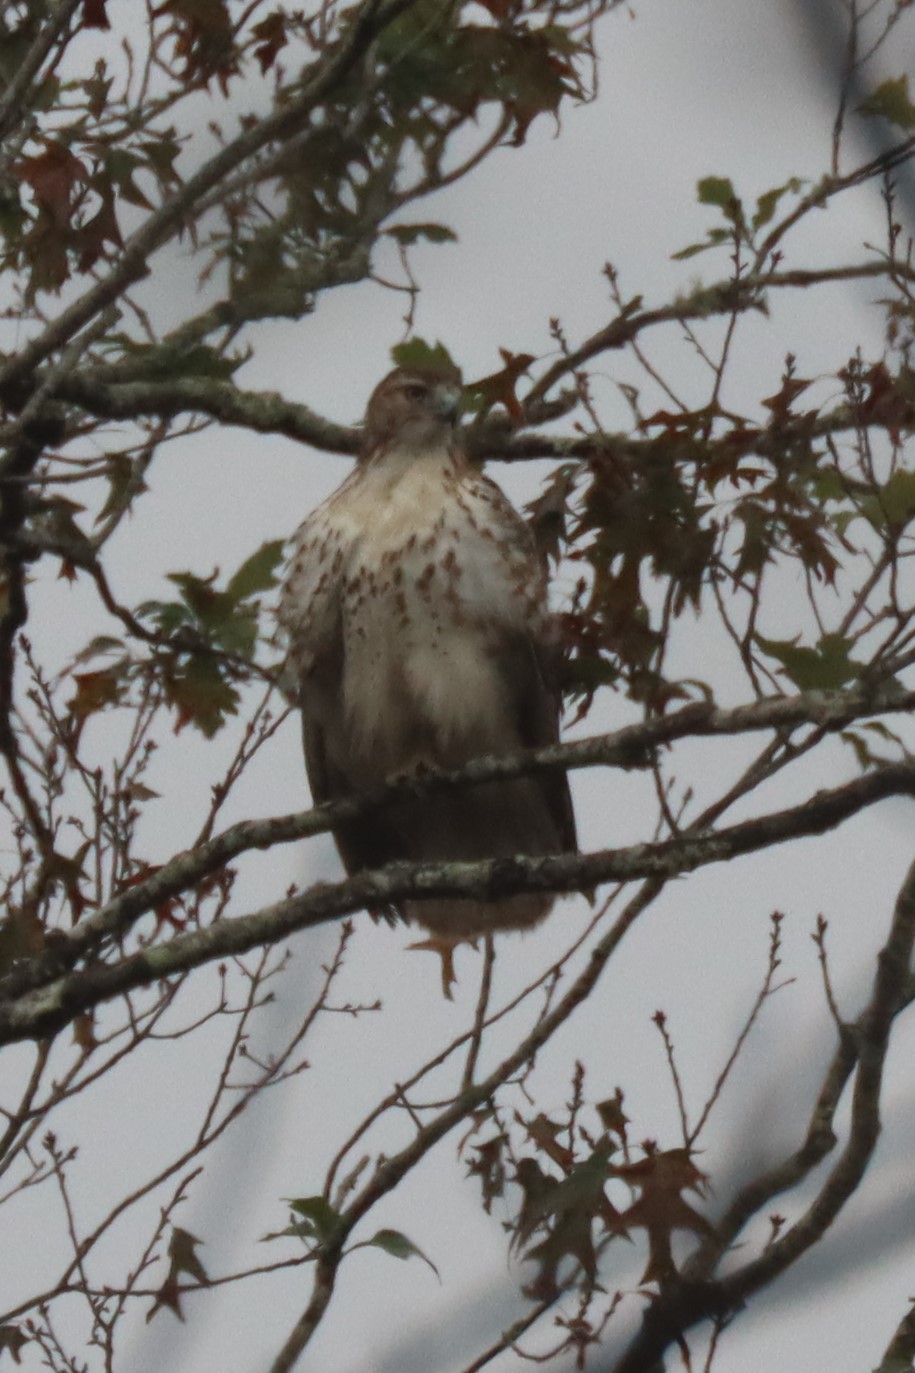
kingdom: Animalia
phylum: Chordata
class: Aves
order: Accipitriformes
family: Accipitridae
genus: Buteo
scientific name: Buteo jamaicensis
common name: Red-tailed hawk
